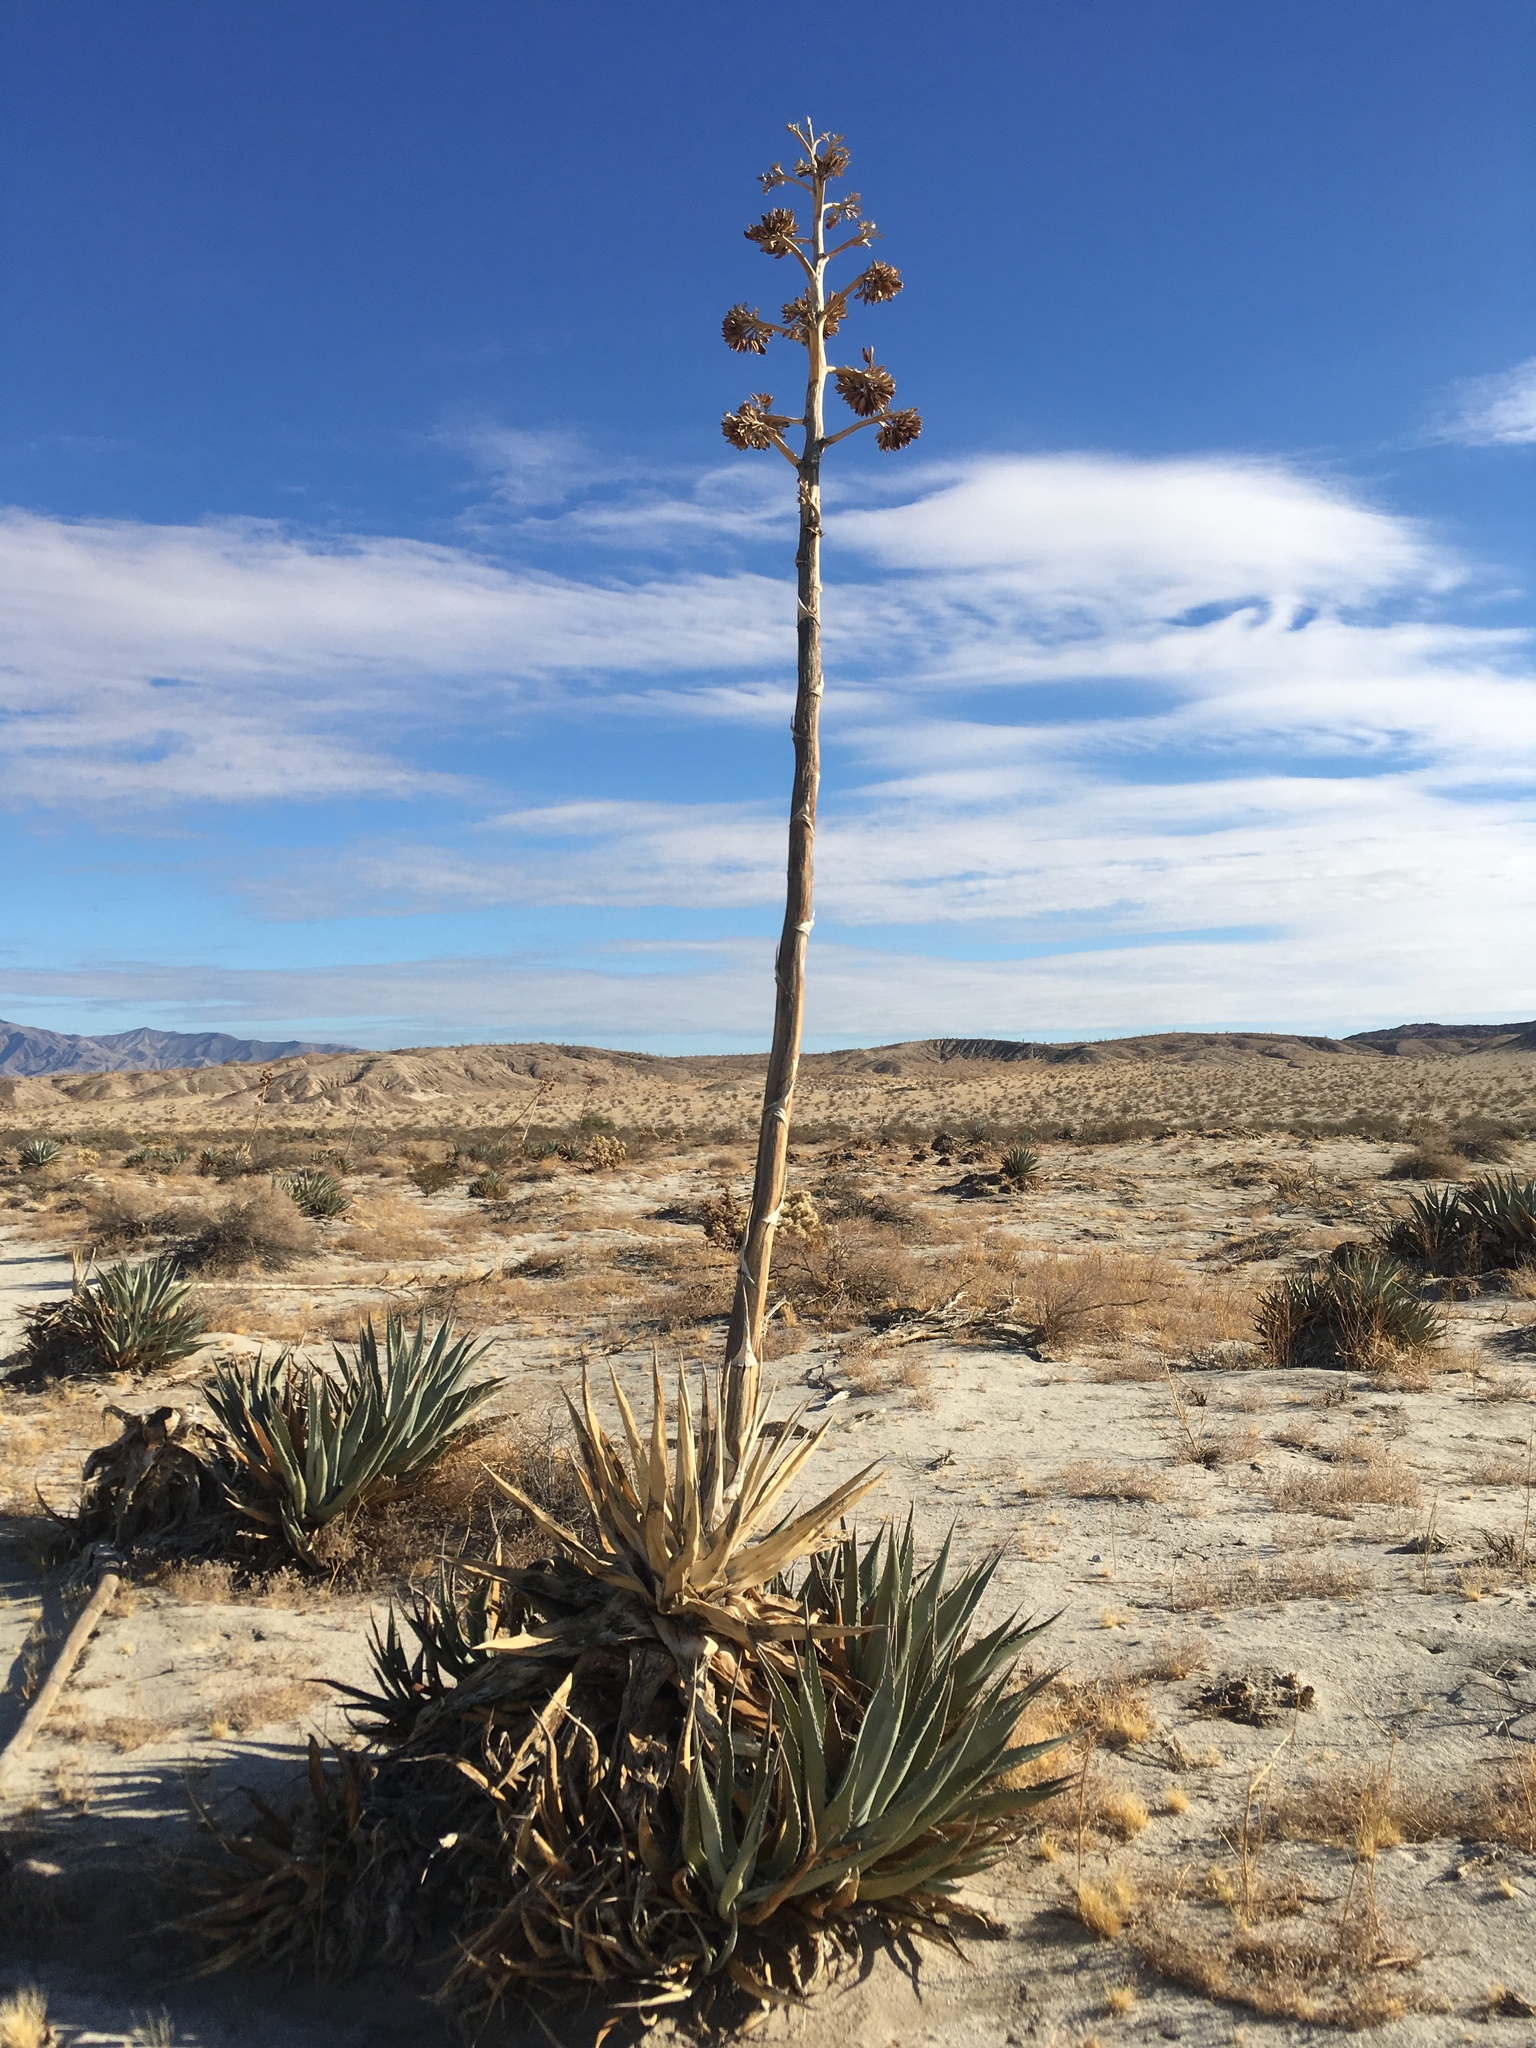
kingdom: Plantae
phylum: Tracheophyta
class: Liliopsida
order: Asparagales
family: Asparagaceae
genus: Agave
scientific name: Agave deserti
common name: Desert agave
